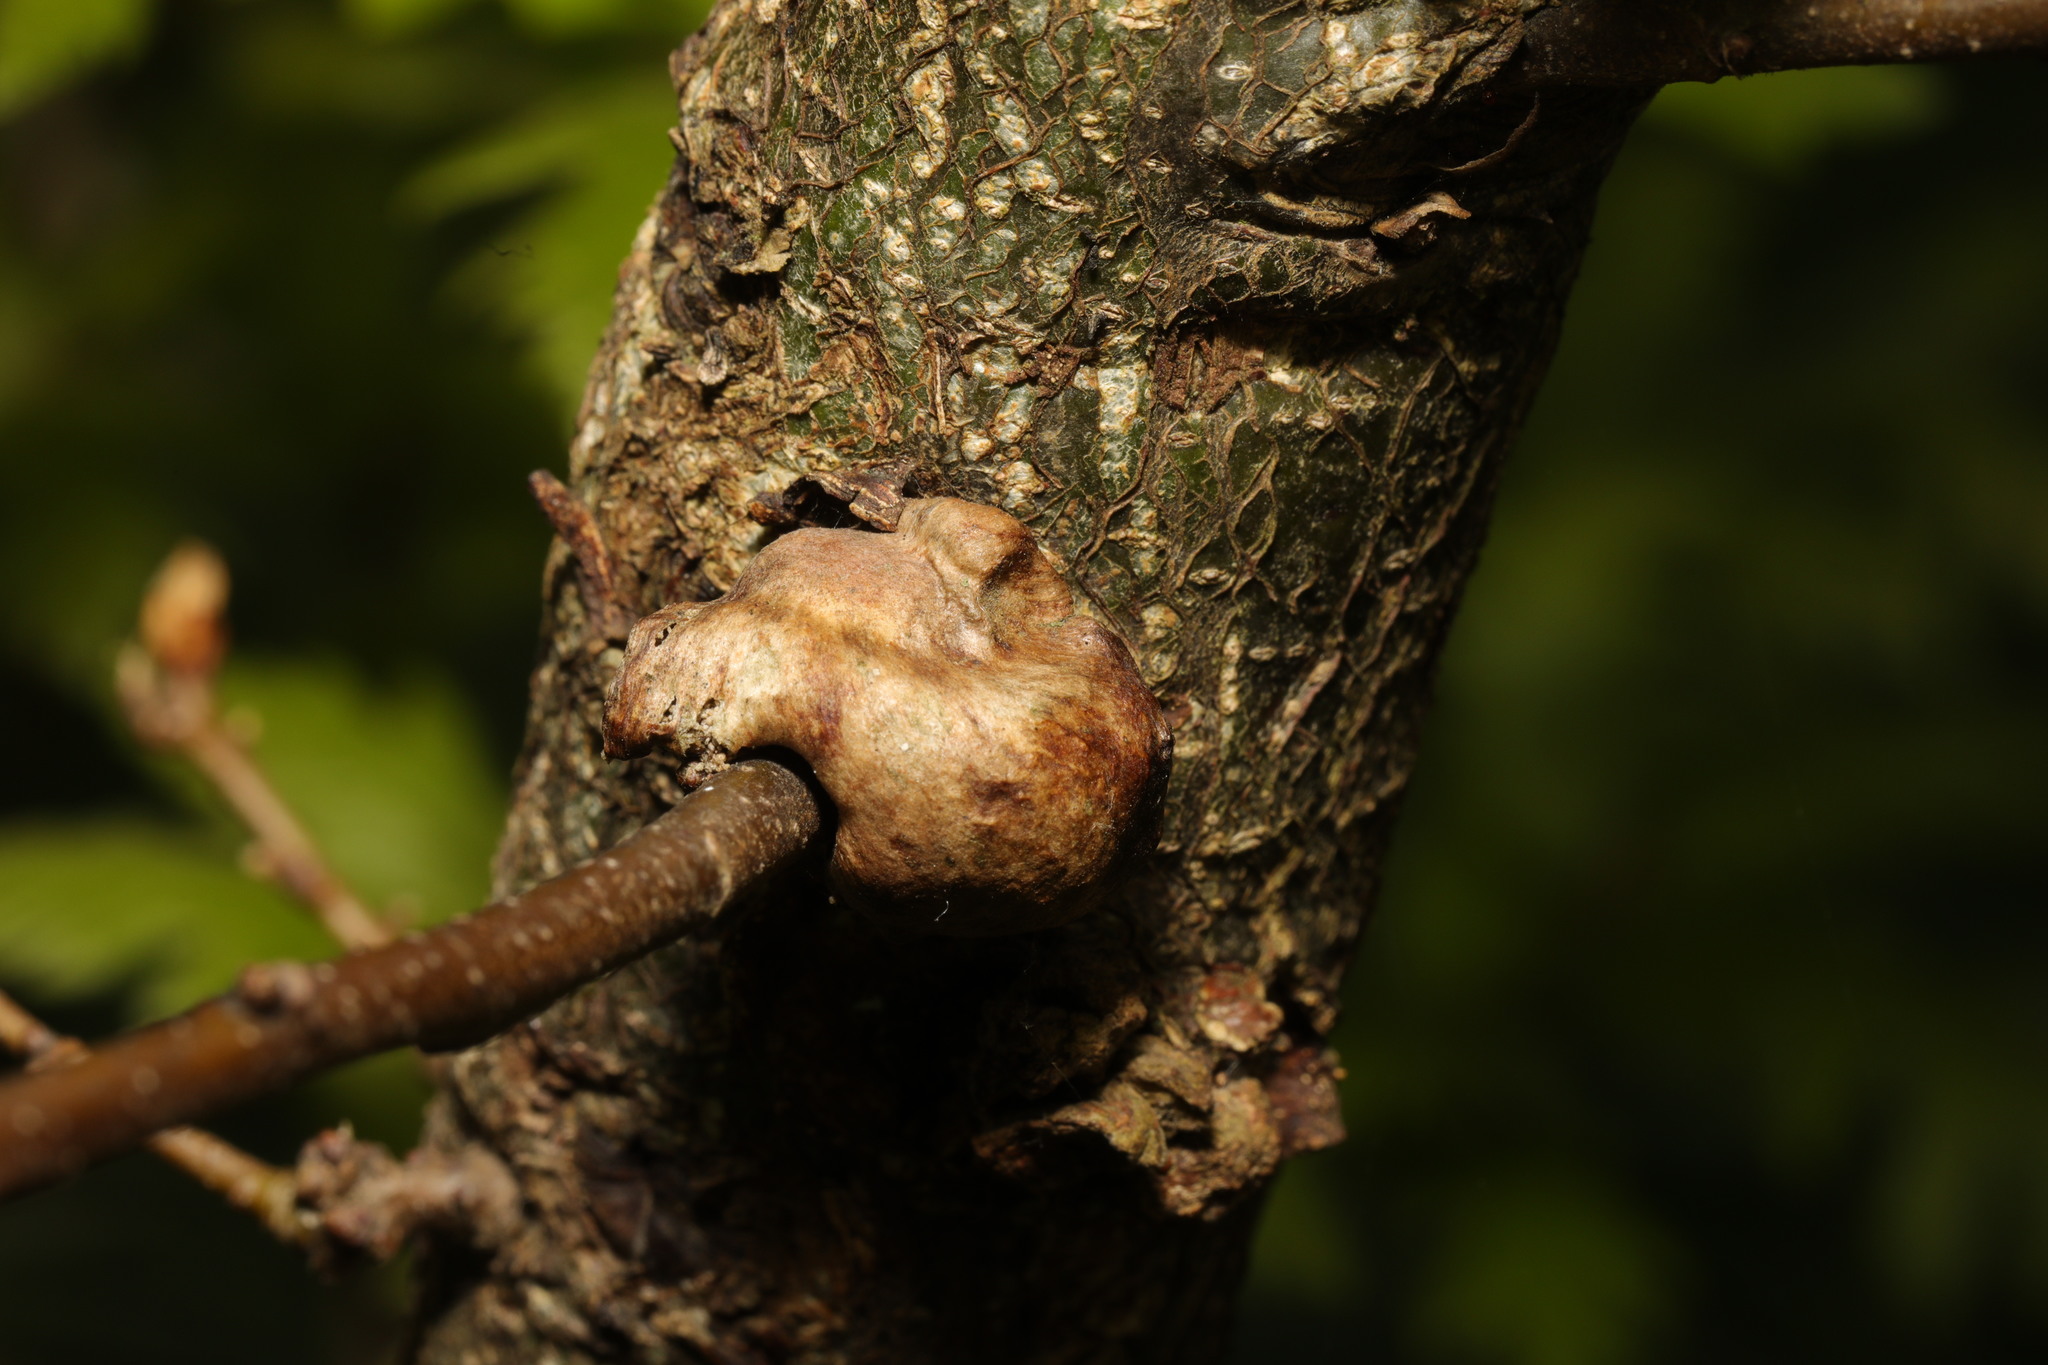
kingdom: Animalia
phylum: Arthropoda
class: Insecta
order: Hymenoptera
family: Cynipidae
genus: Aphelonyx
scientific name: Aphelonyx cerricola
